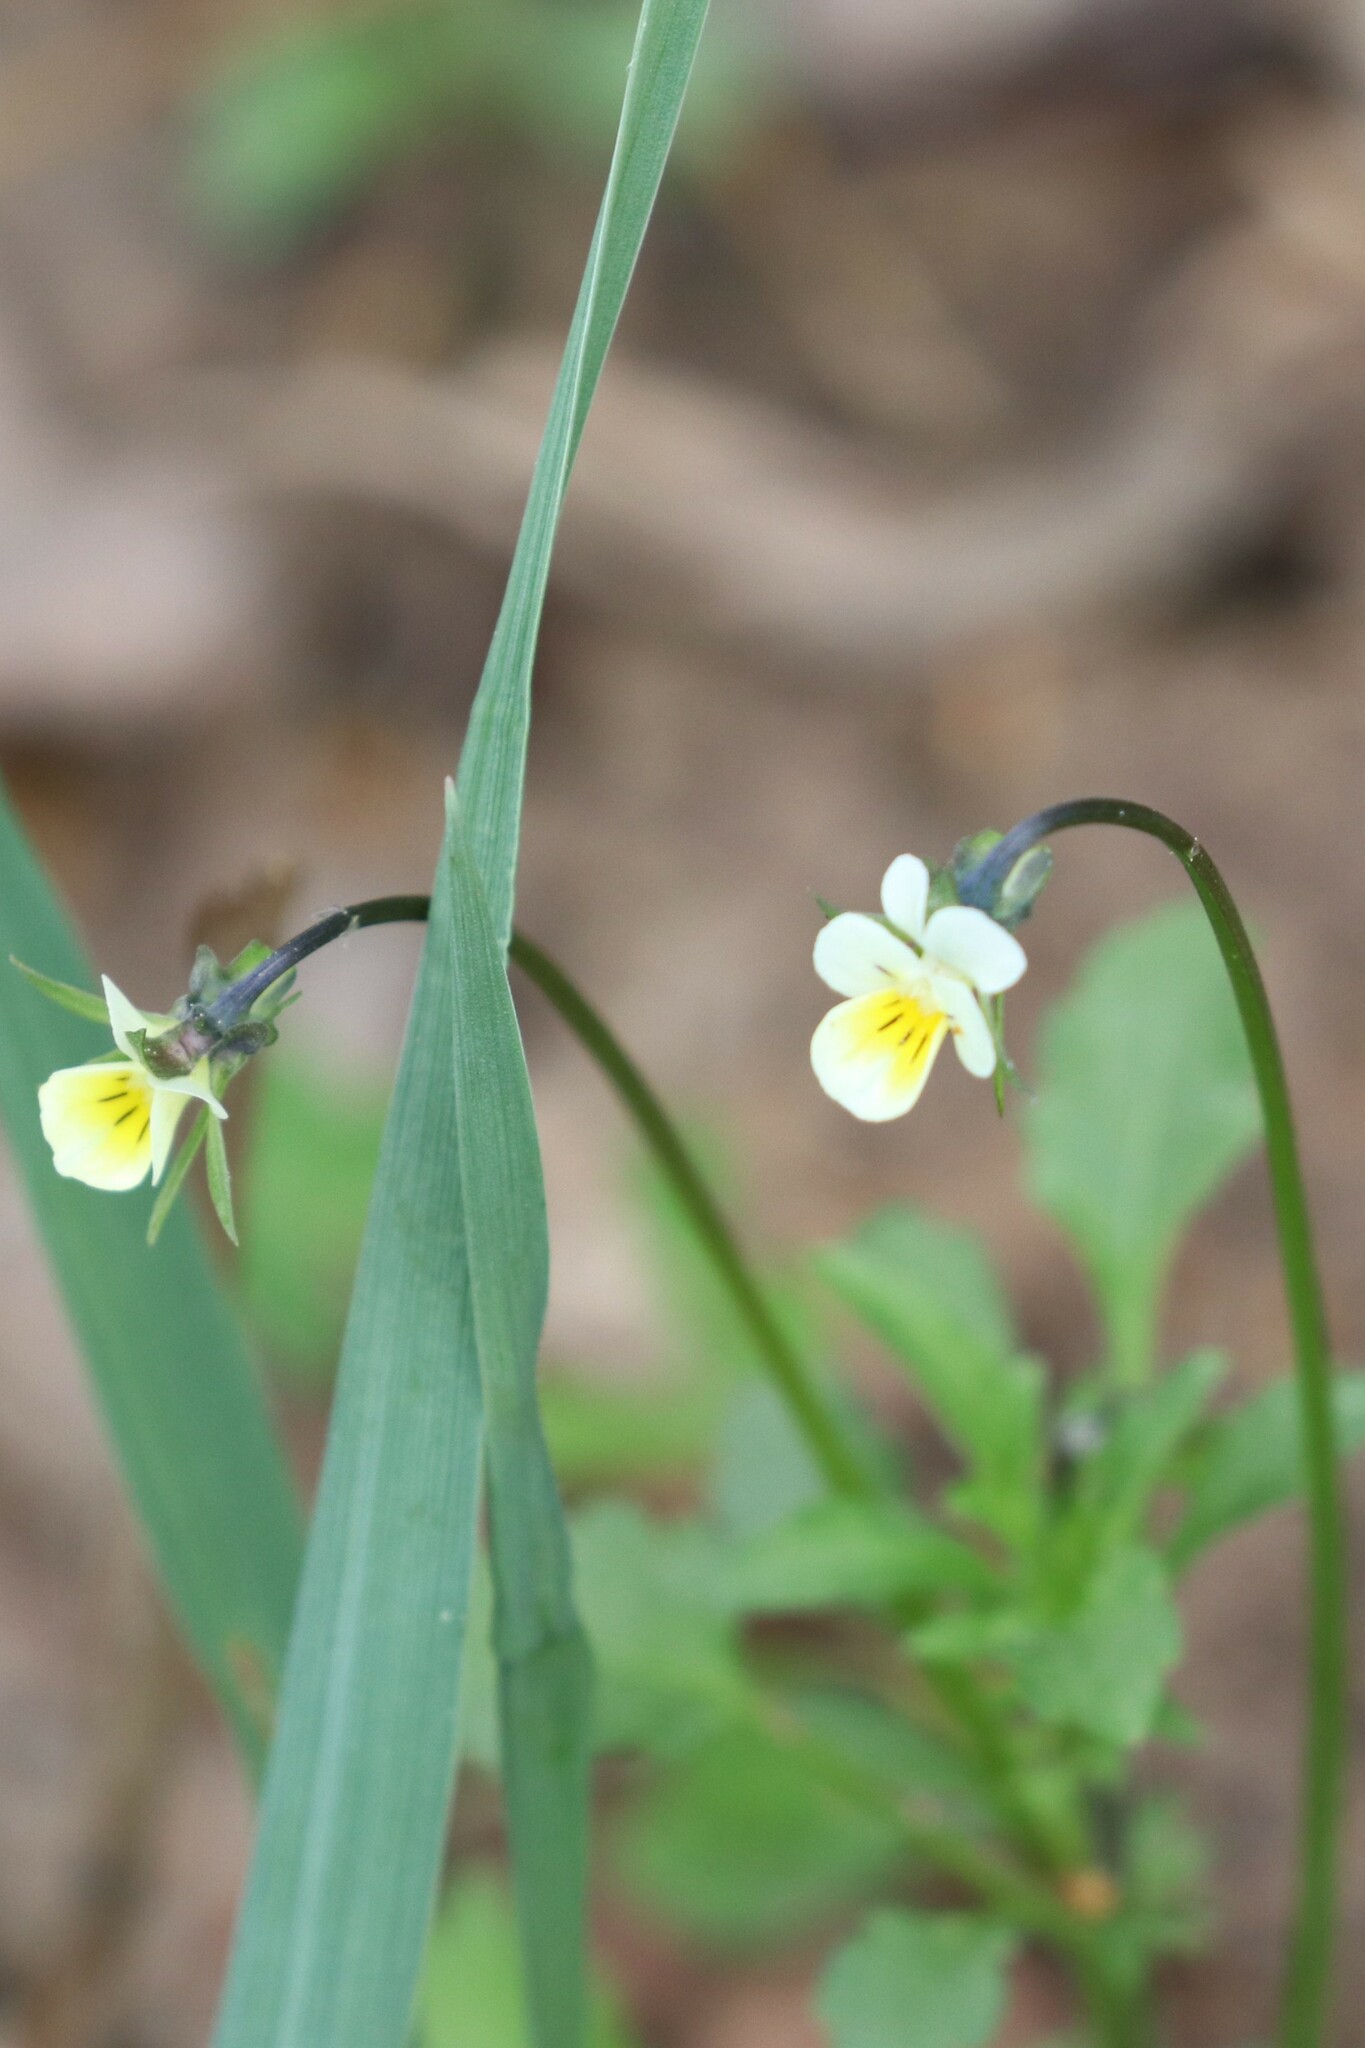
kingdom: Plantae
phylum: Tracheophyta
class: Magnoliopsida
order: Malpighiales
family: Violaceae
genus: Viola
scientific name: Viola arvensis
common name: Field pansy
